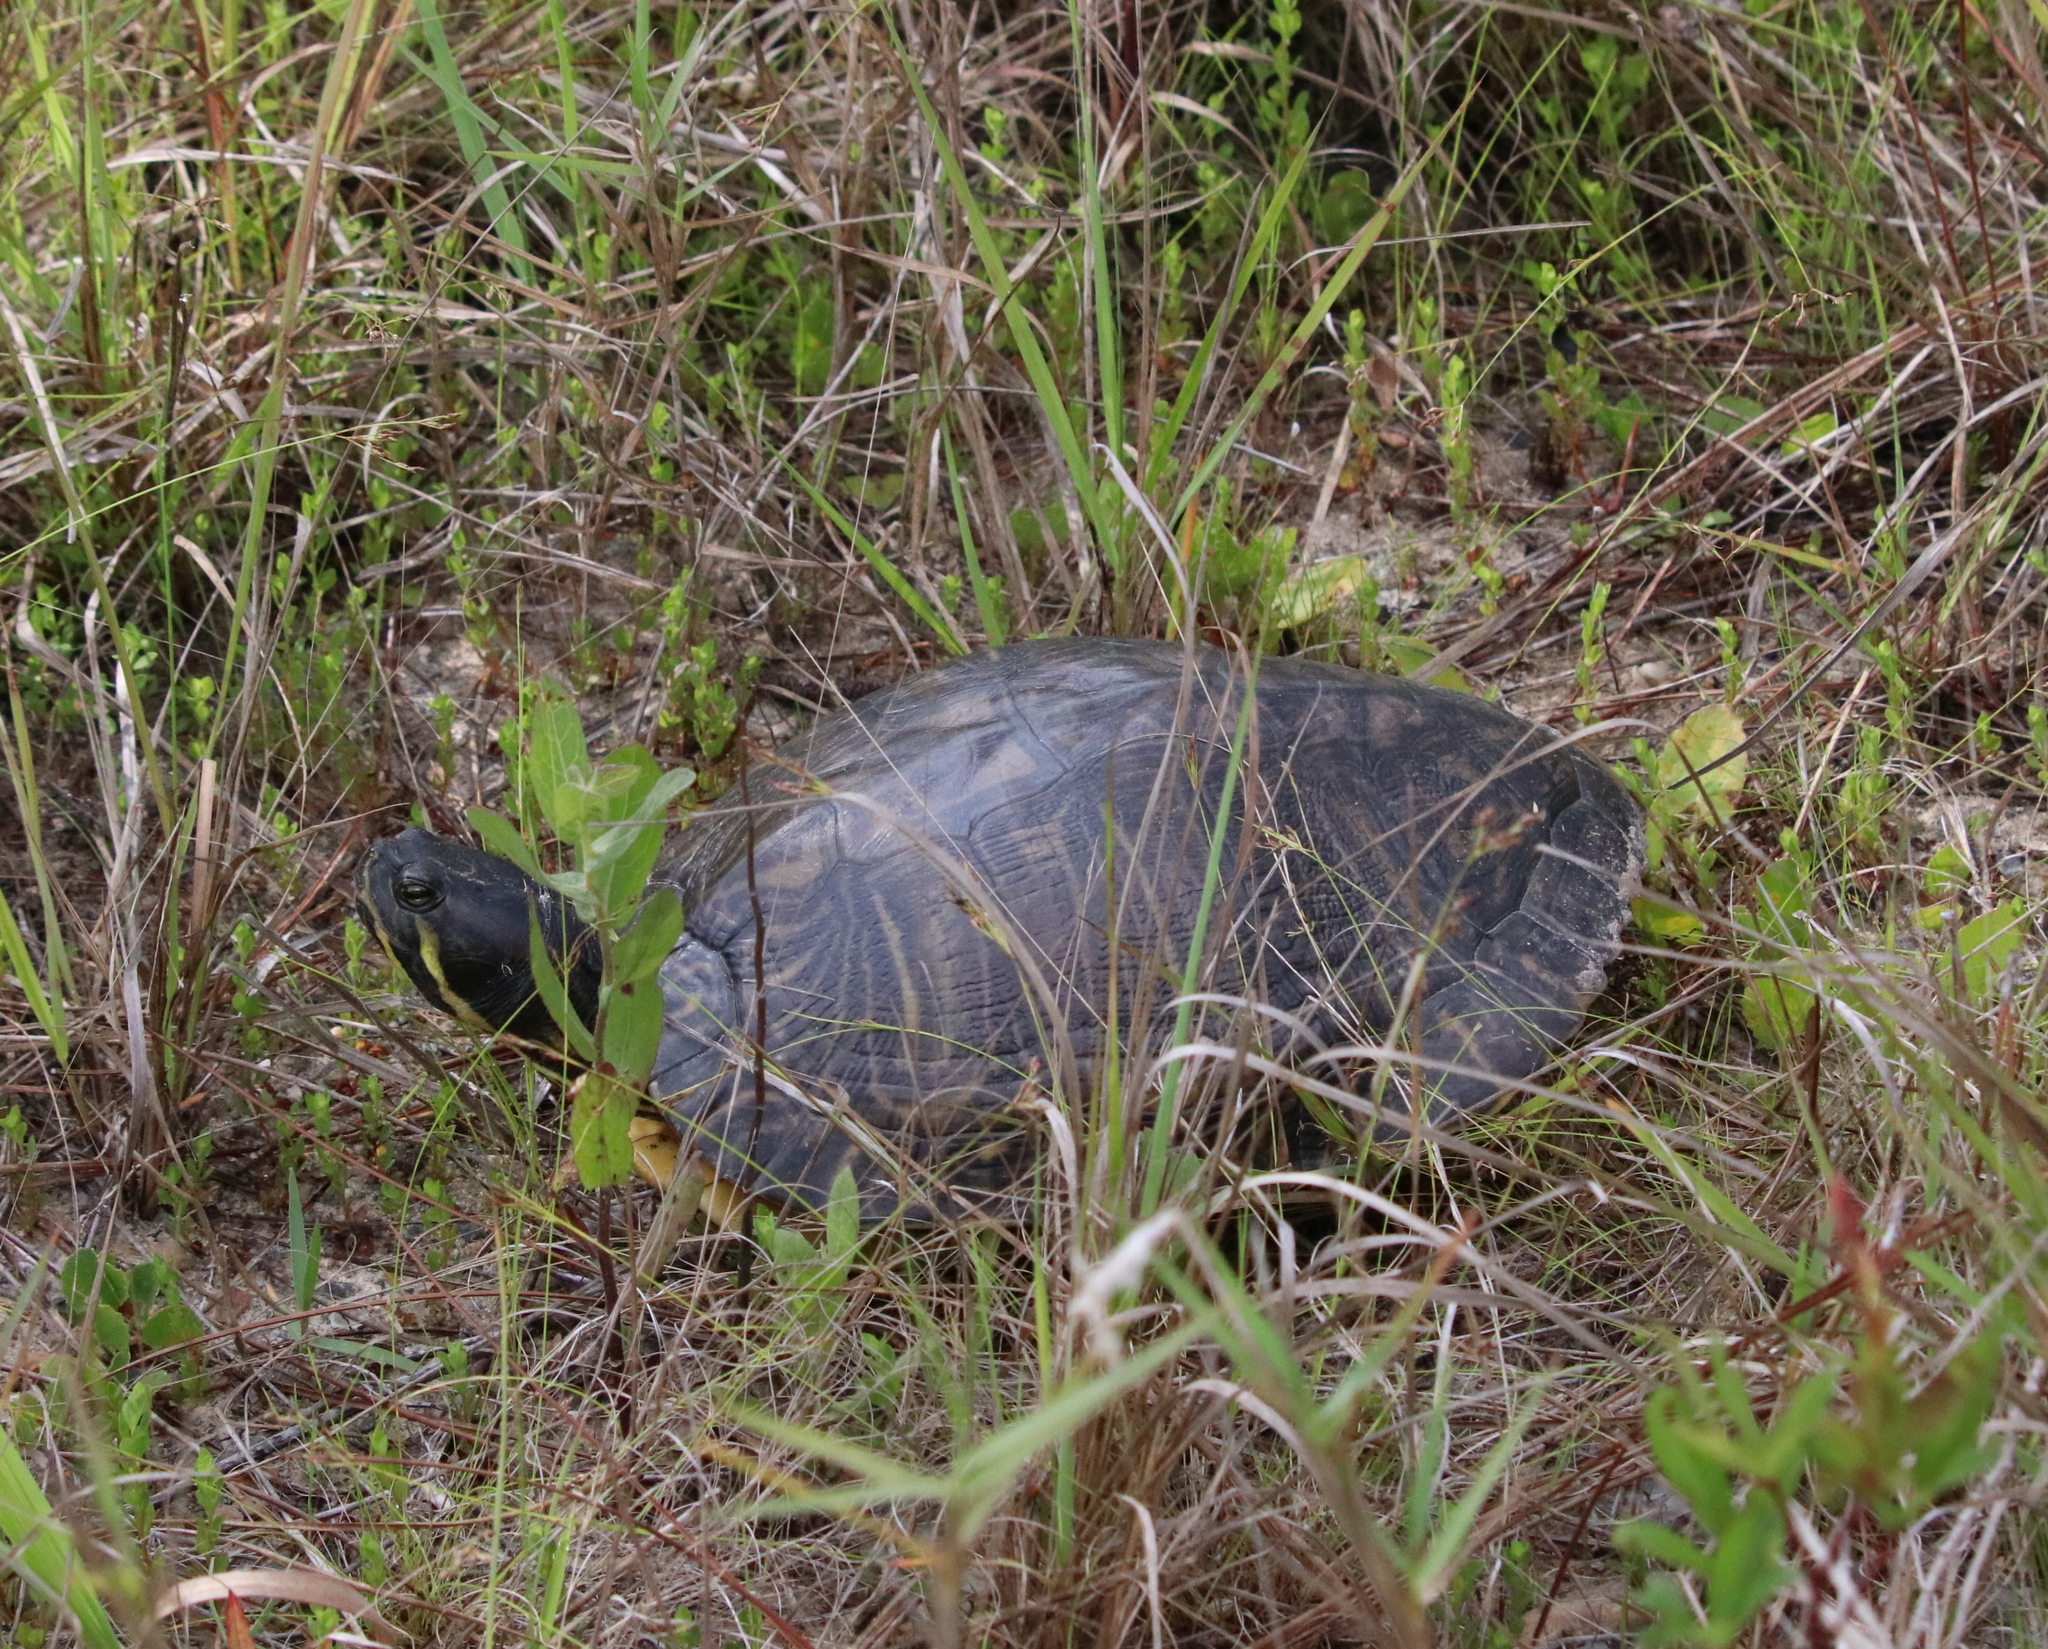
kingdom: Animalia
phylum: Chordata
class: Testudines
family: Emydidae
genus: Trachemys
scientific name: Trachemys scripta
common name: Slider
